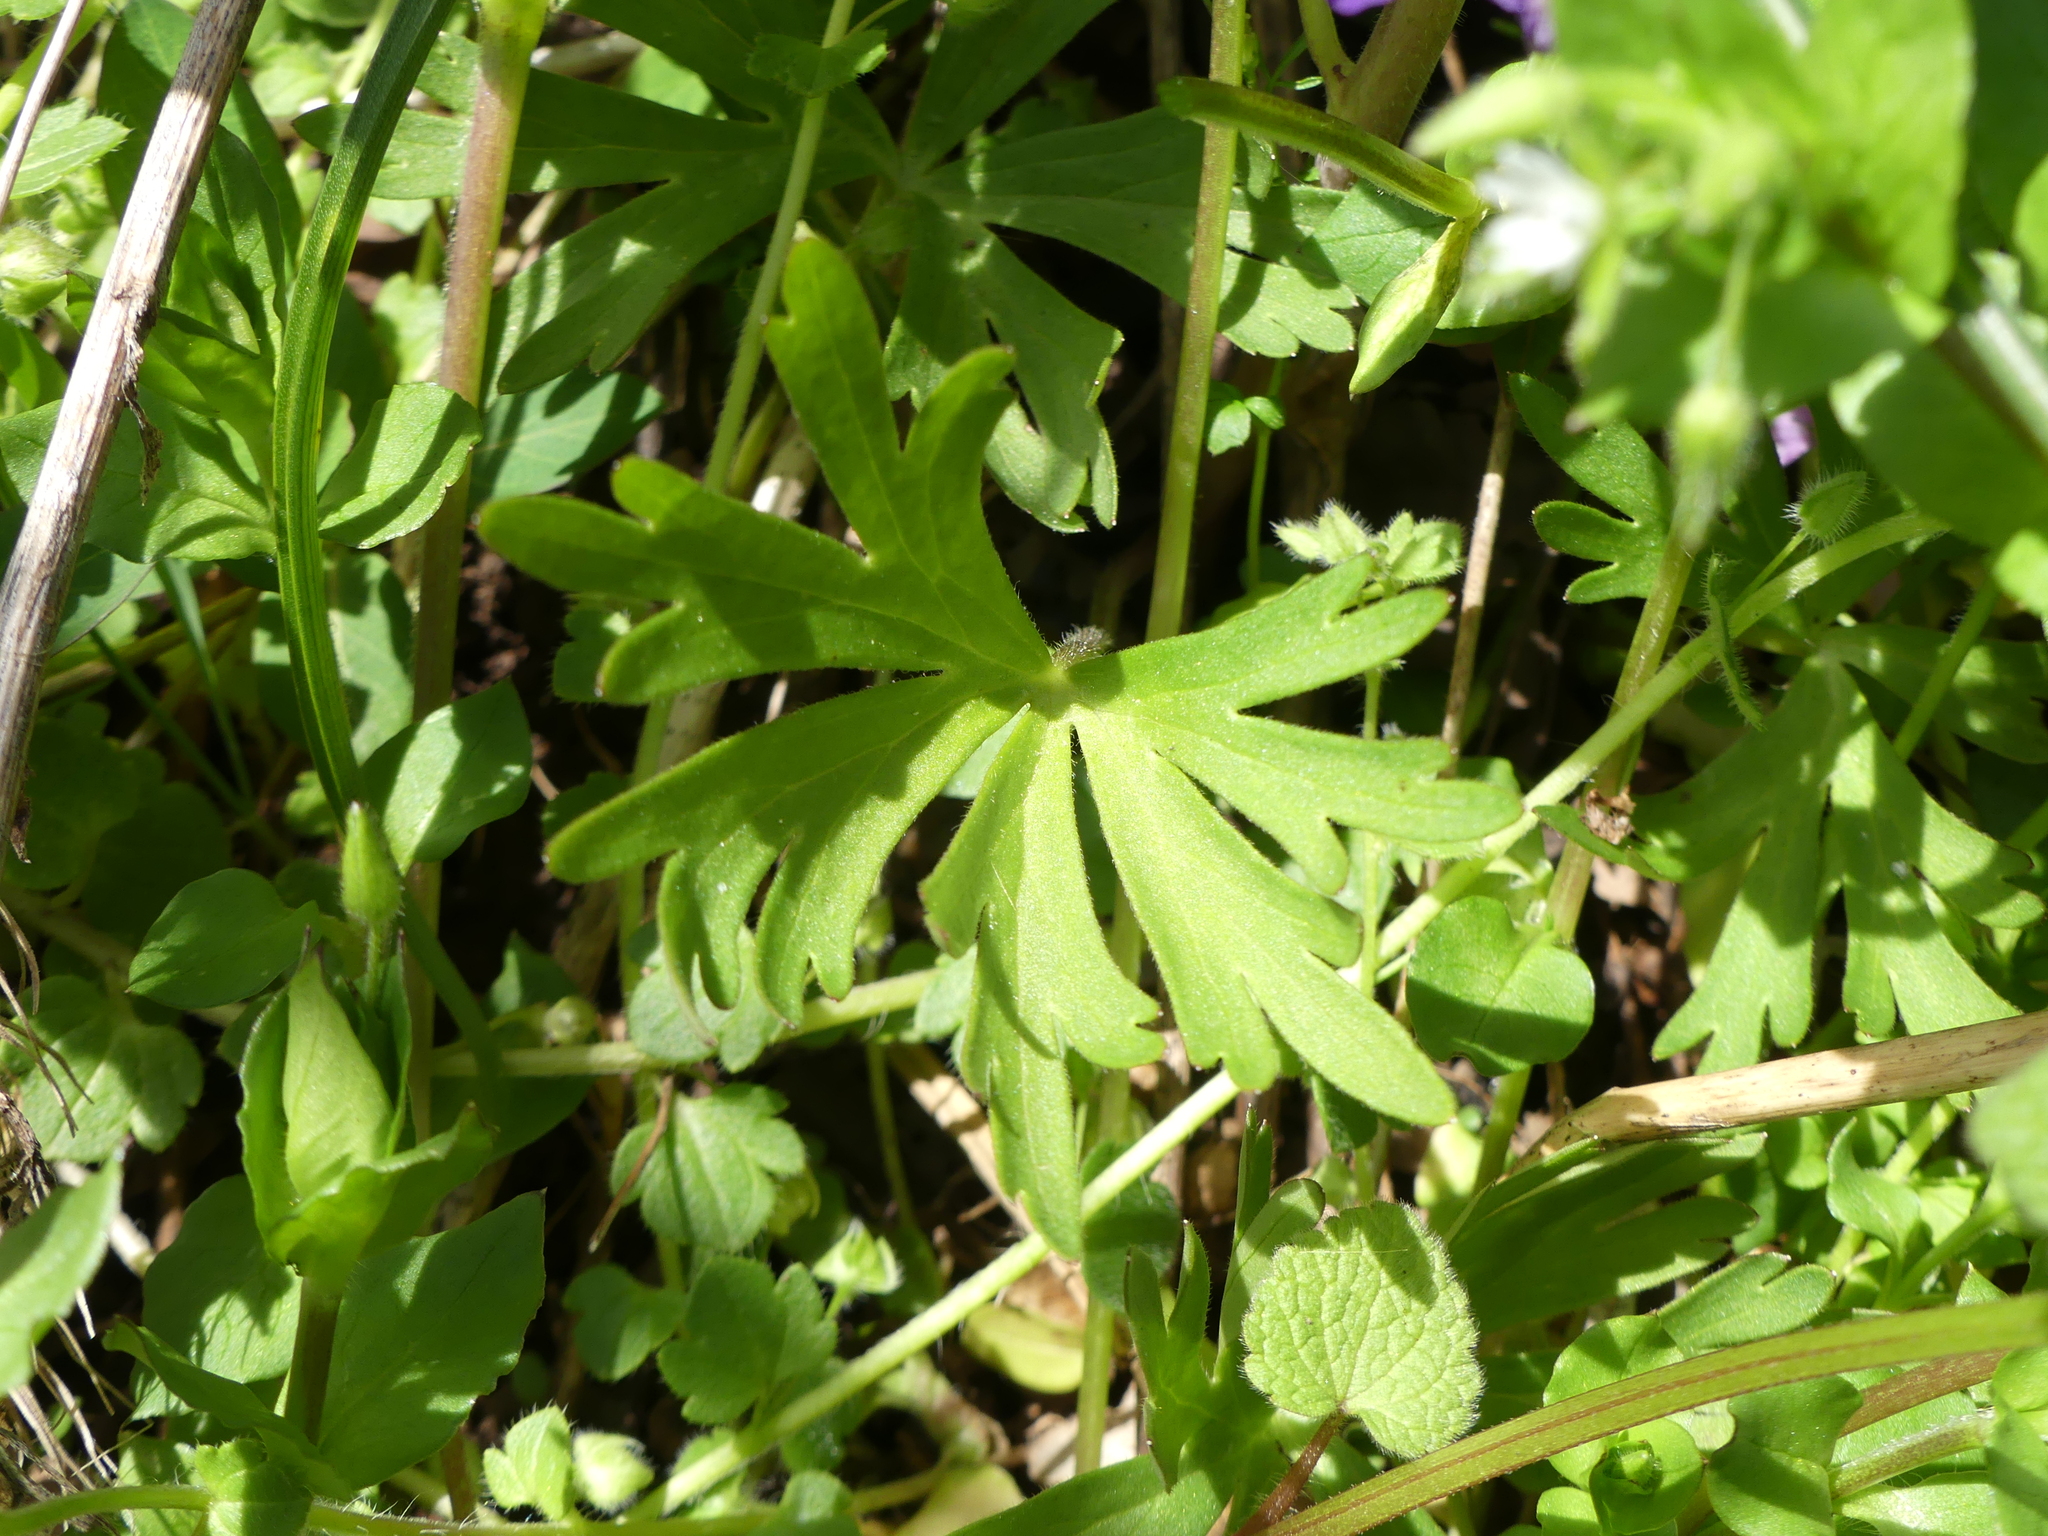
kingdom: Plantae
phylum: Tracheophyta
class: Magnoliopsida
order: Ranunculales
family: Ranunculaceae
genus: Delphinium
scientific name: Delphinium tricorne
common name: Dwarf larkspur
